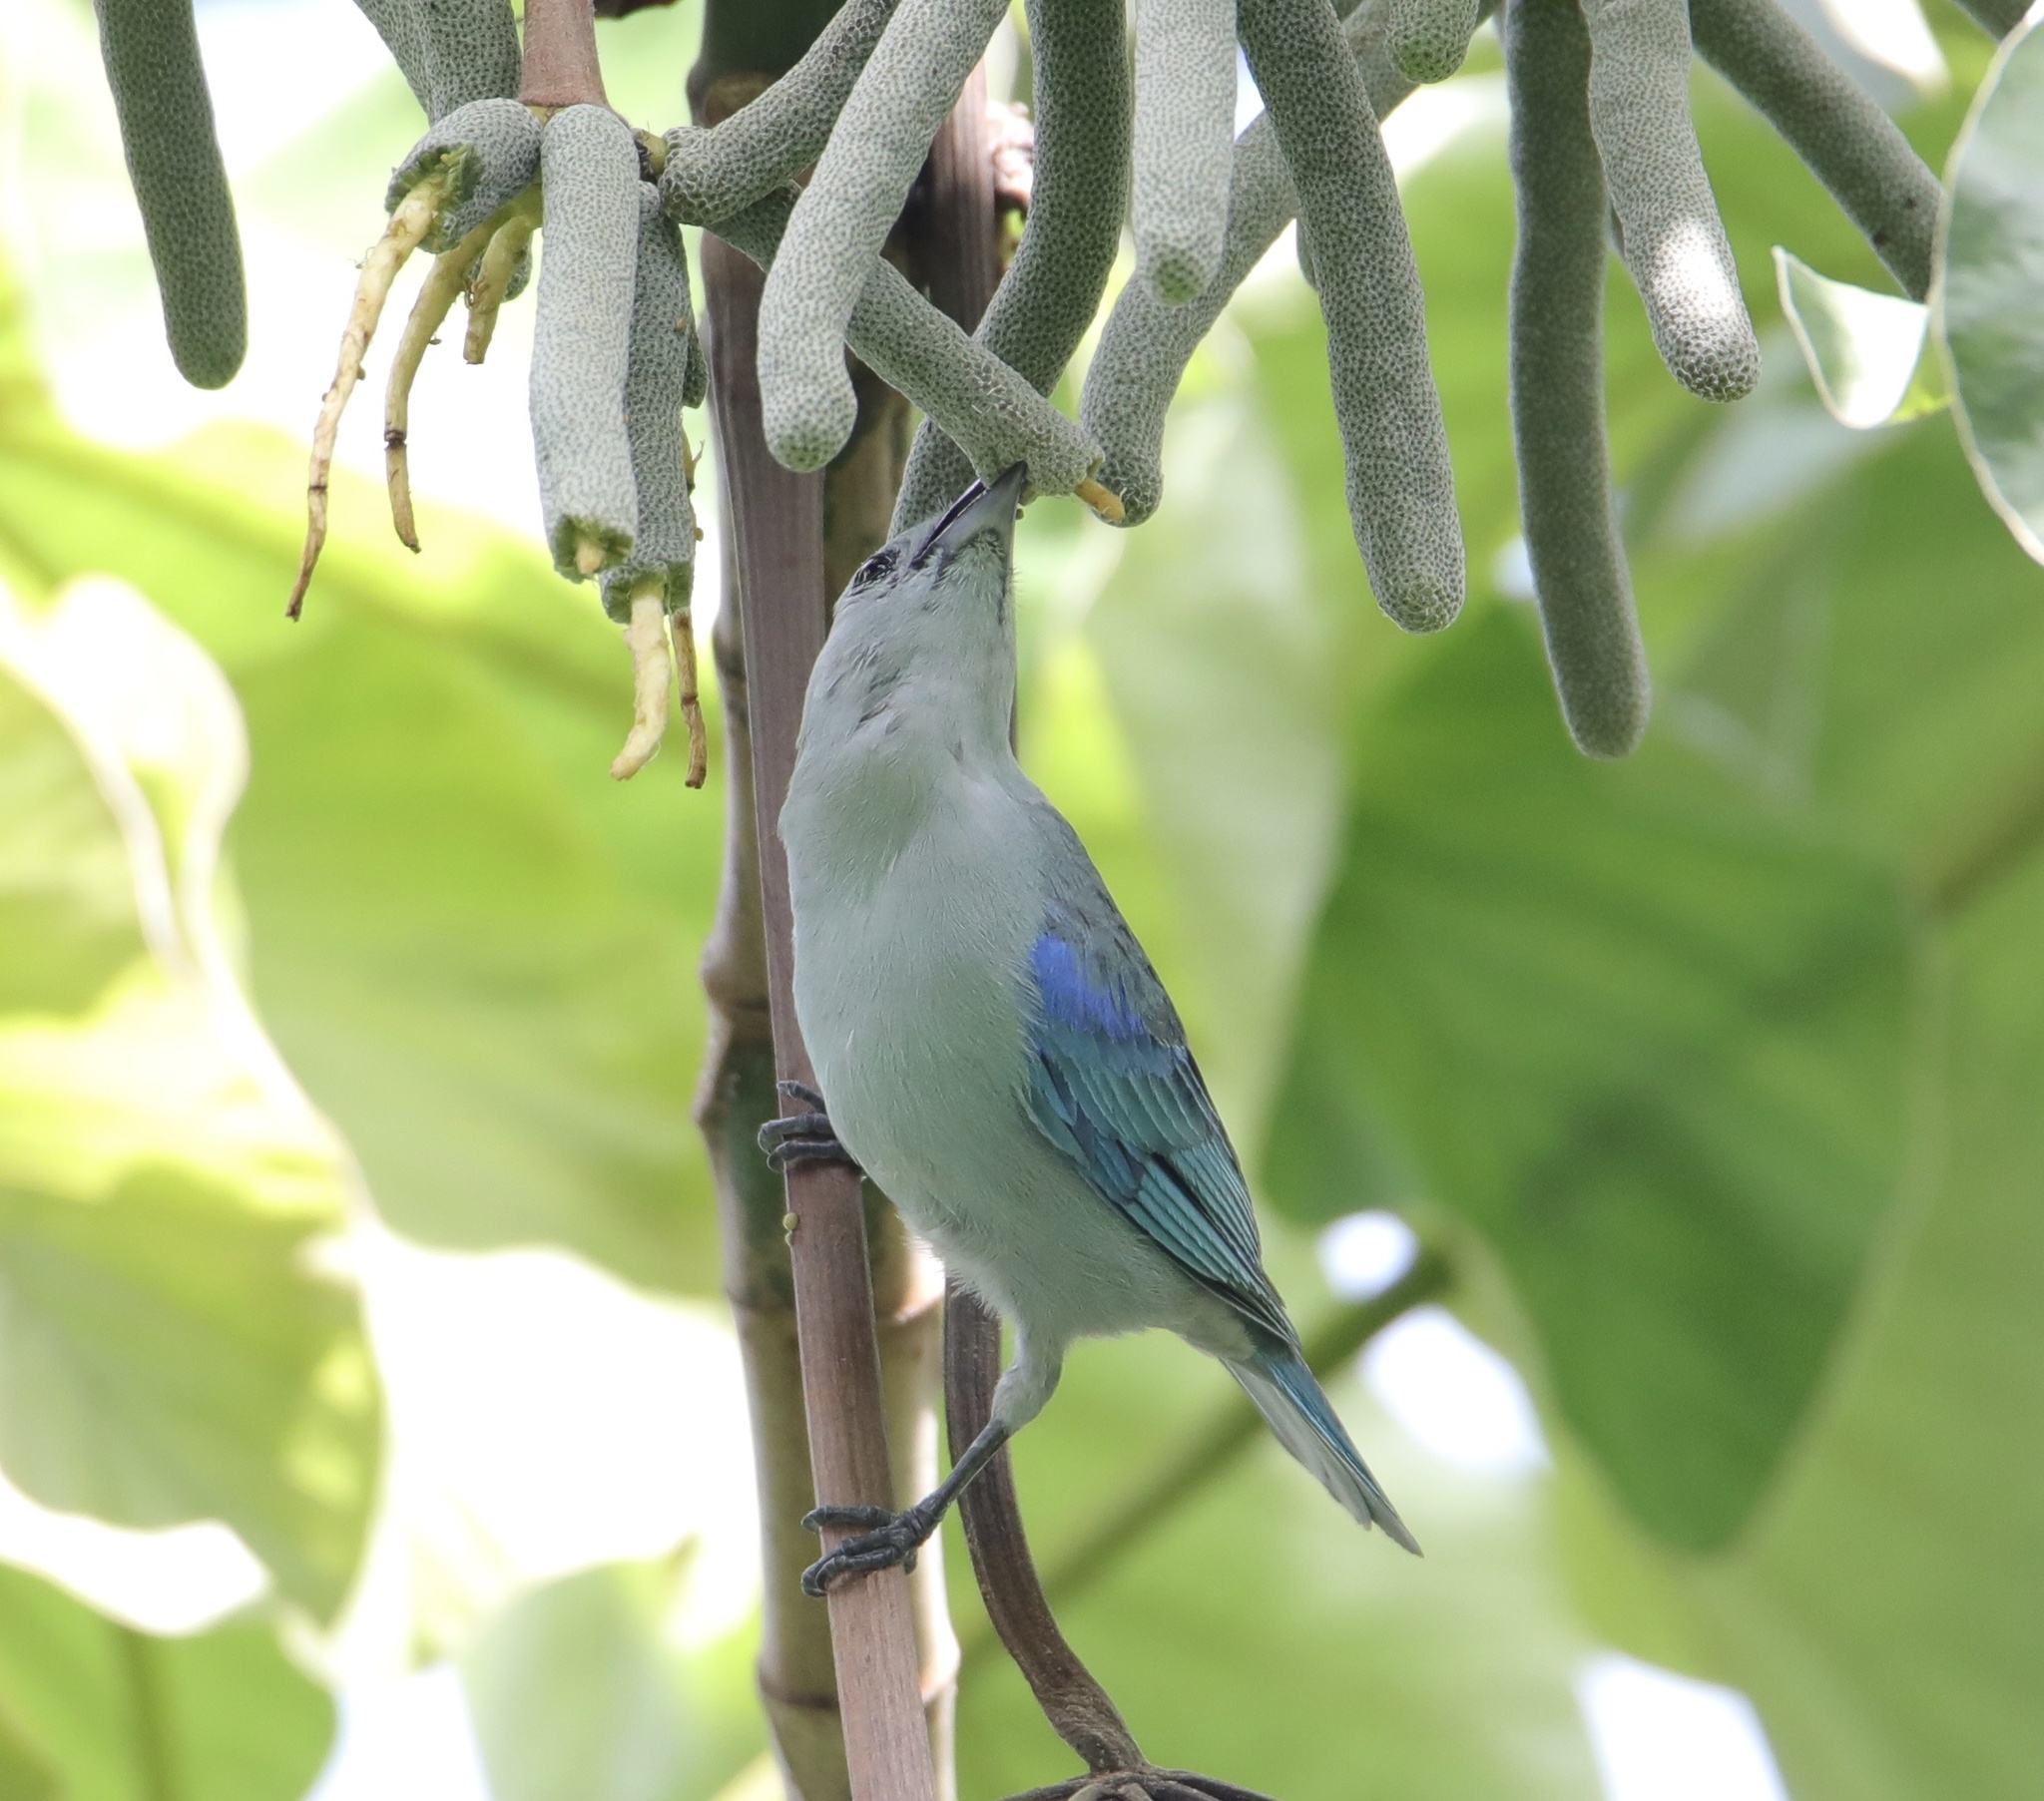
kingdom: Animalia
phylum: Chordata
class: Aves
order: Passeriformes
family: Thraupidae
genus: Thraupis
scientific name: Thraupis episcopus
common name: Blue-grey tanager
